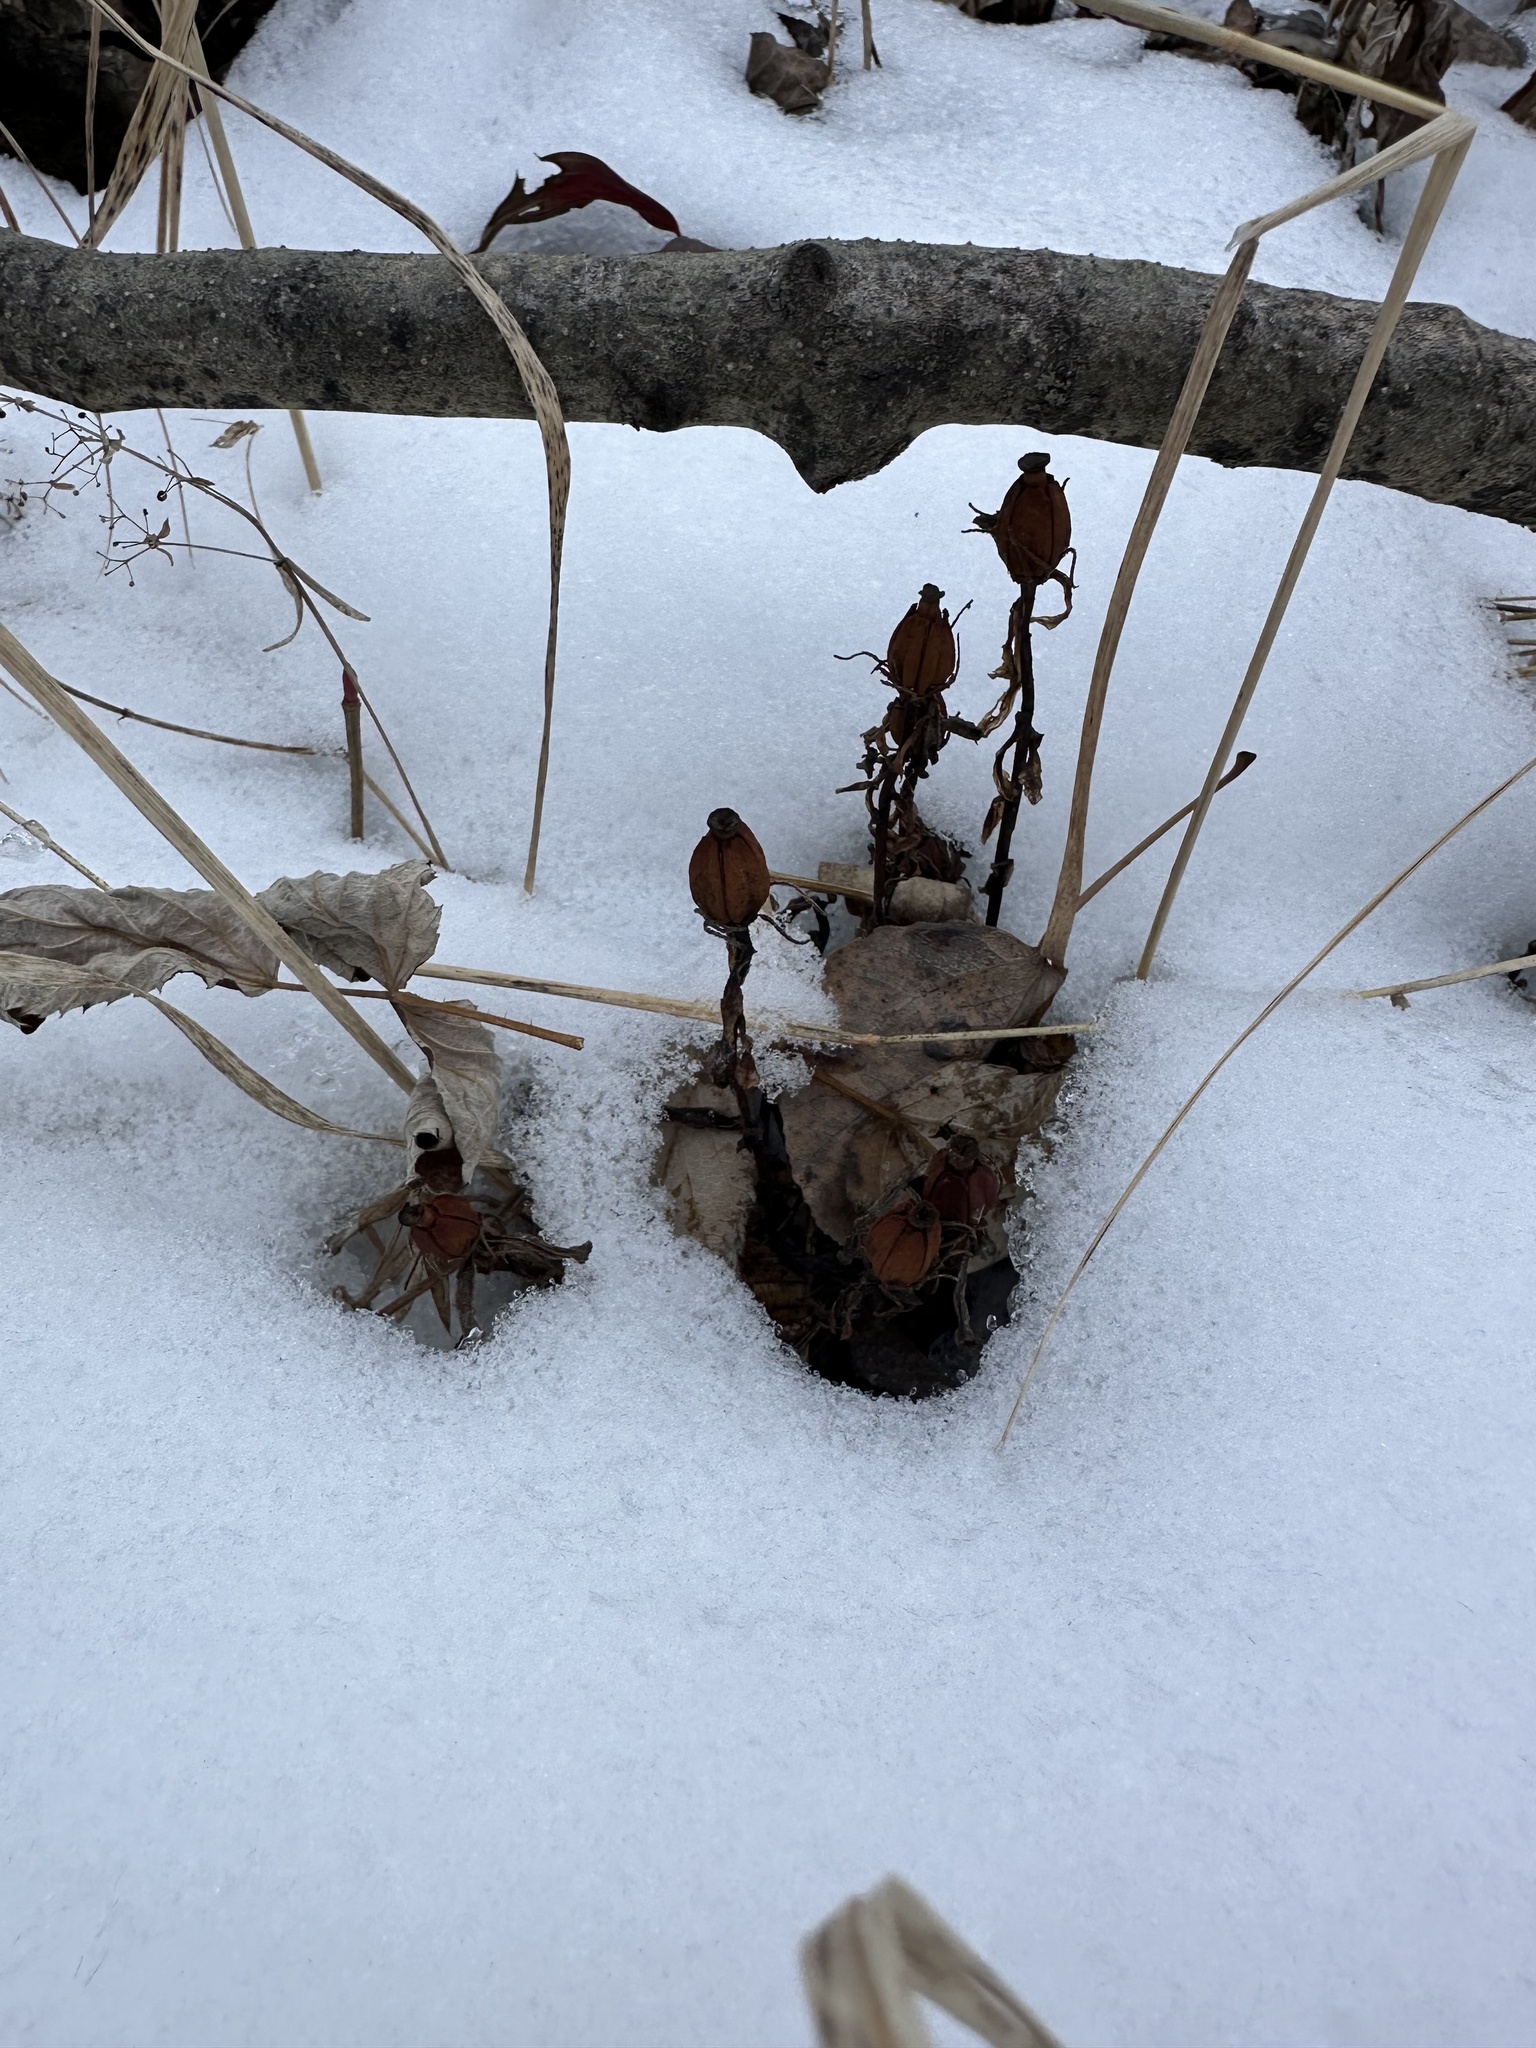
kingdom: Plantae
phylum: Tracheophyta
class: Magnoliopsida
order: Ericales
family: Ericaceae
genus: Monotropa
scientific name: Monotropa uniflora
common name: Convulsion root
